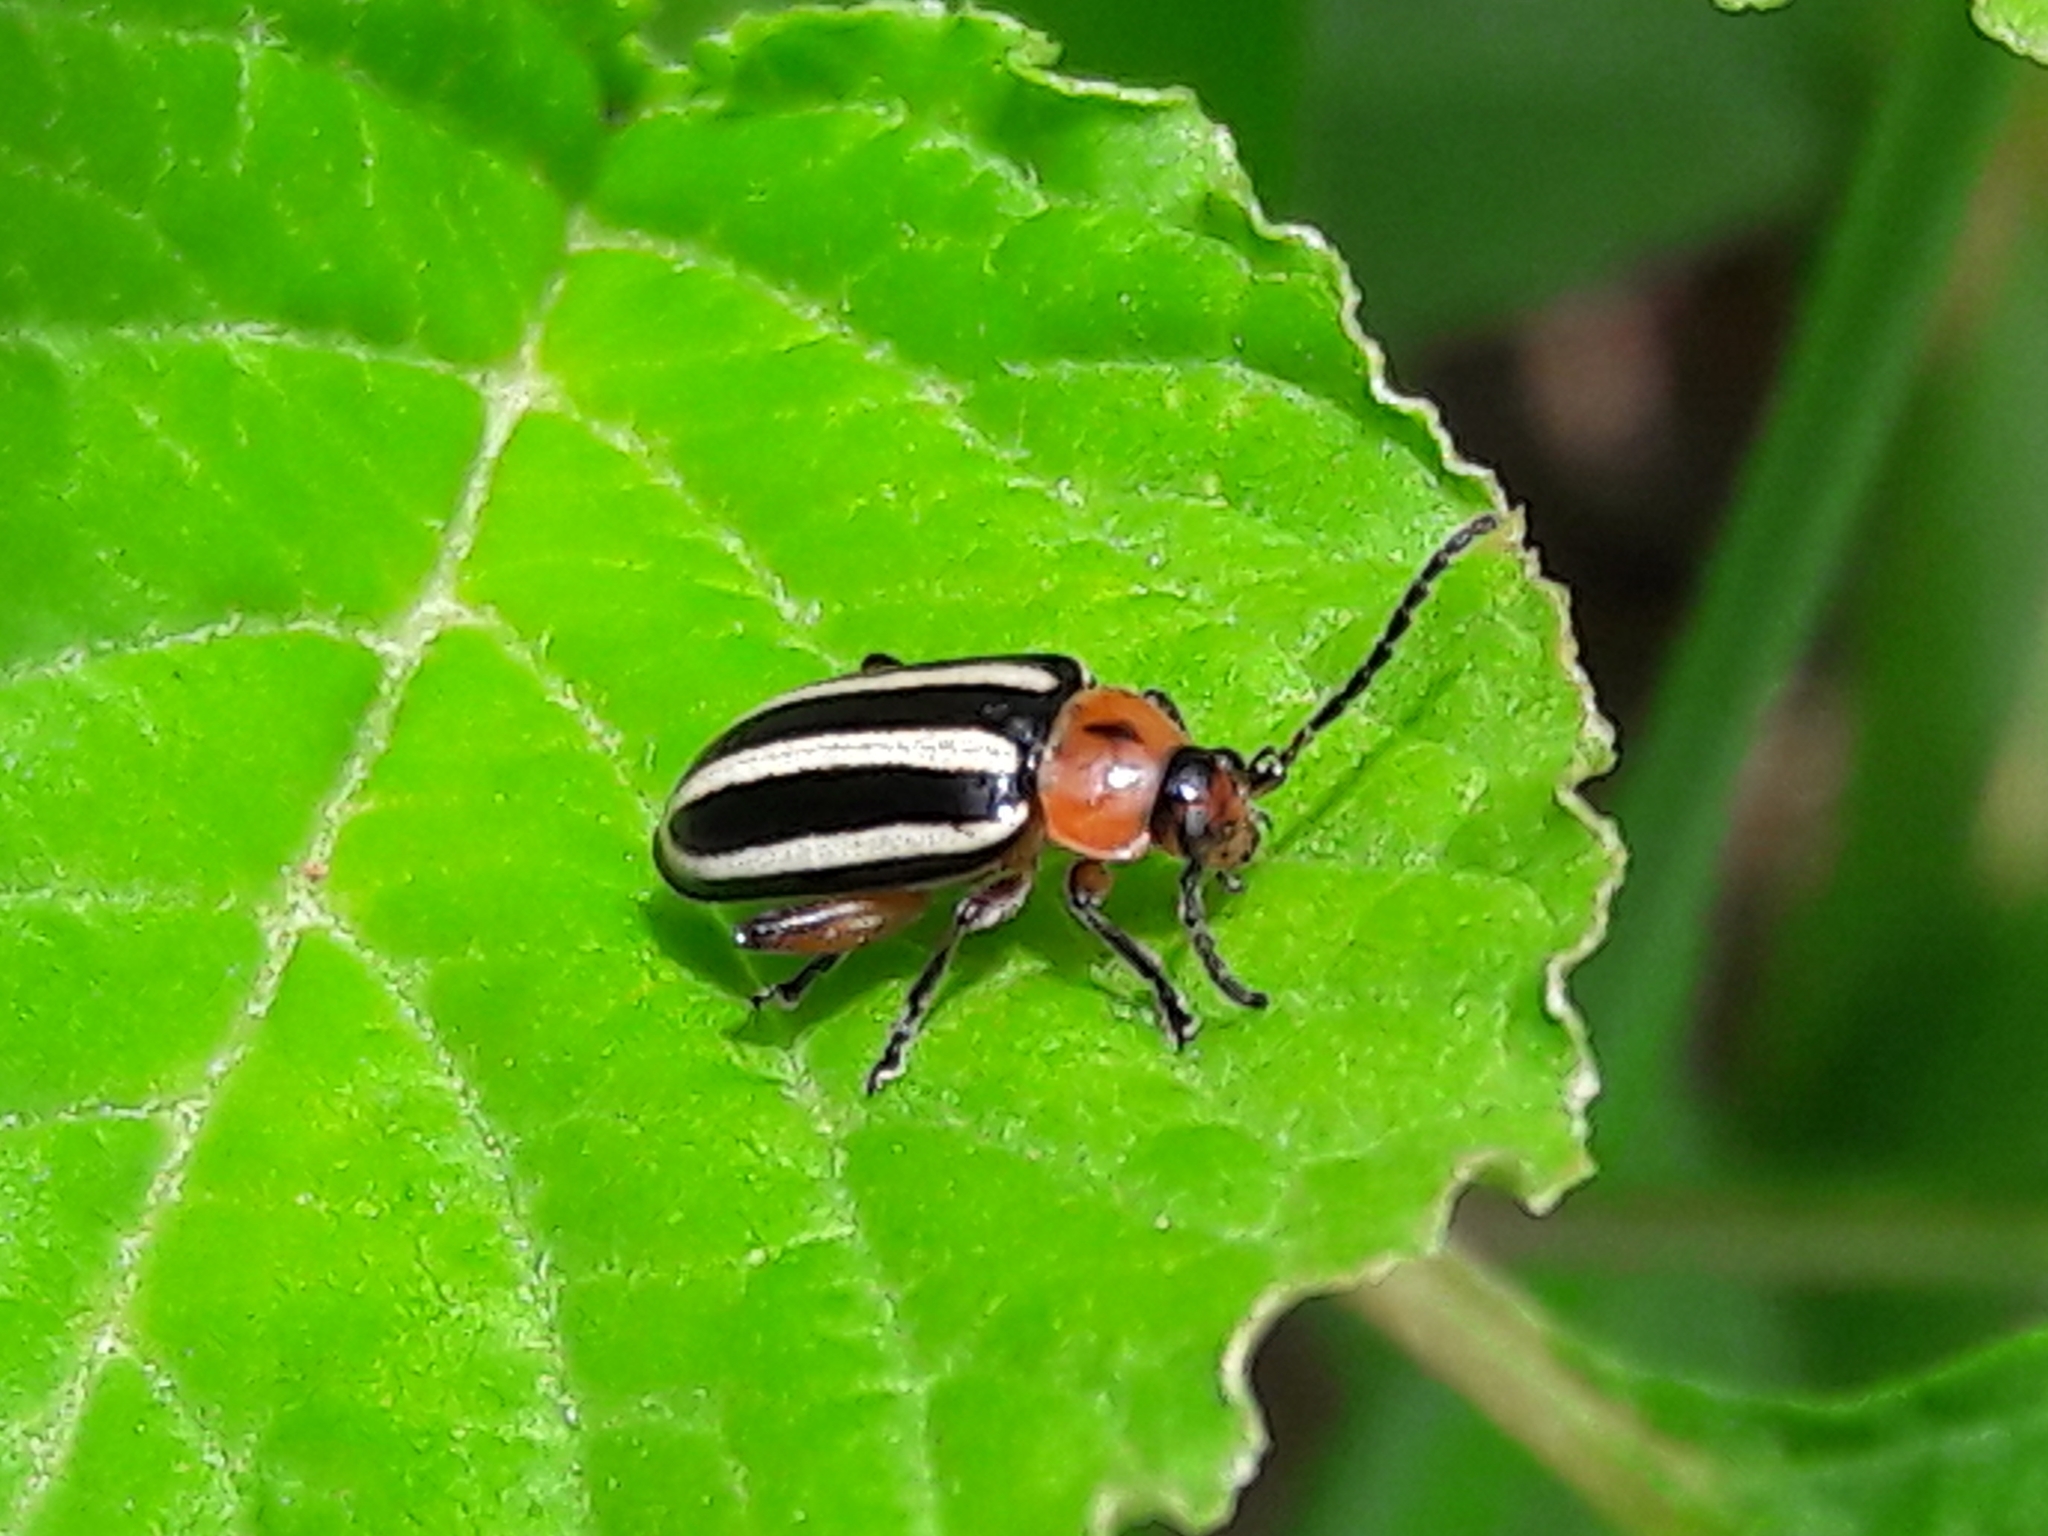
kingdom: Animalia
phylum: Arthropoda
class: Insecta
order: Coleoptera
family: Chrysomelidae
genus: Disonycha
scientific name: Disonycha glabrata
